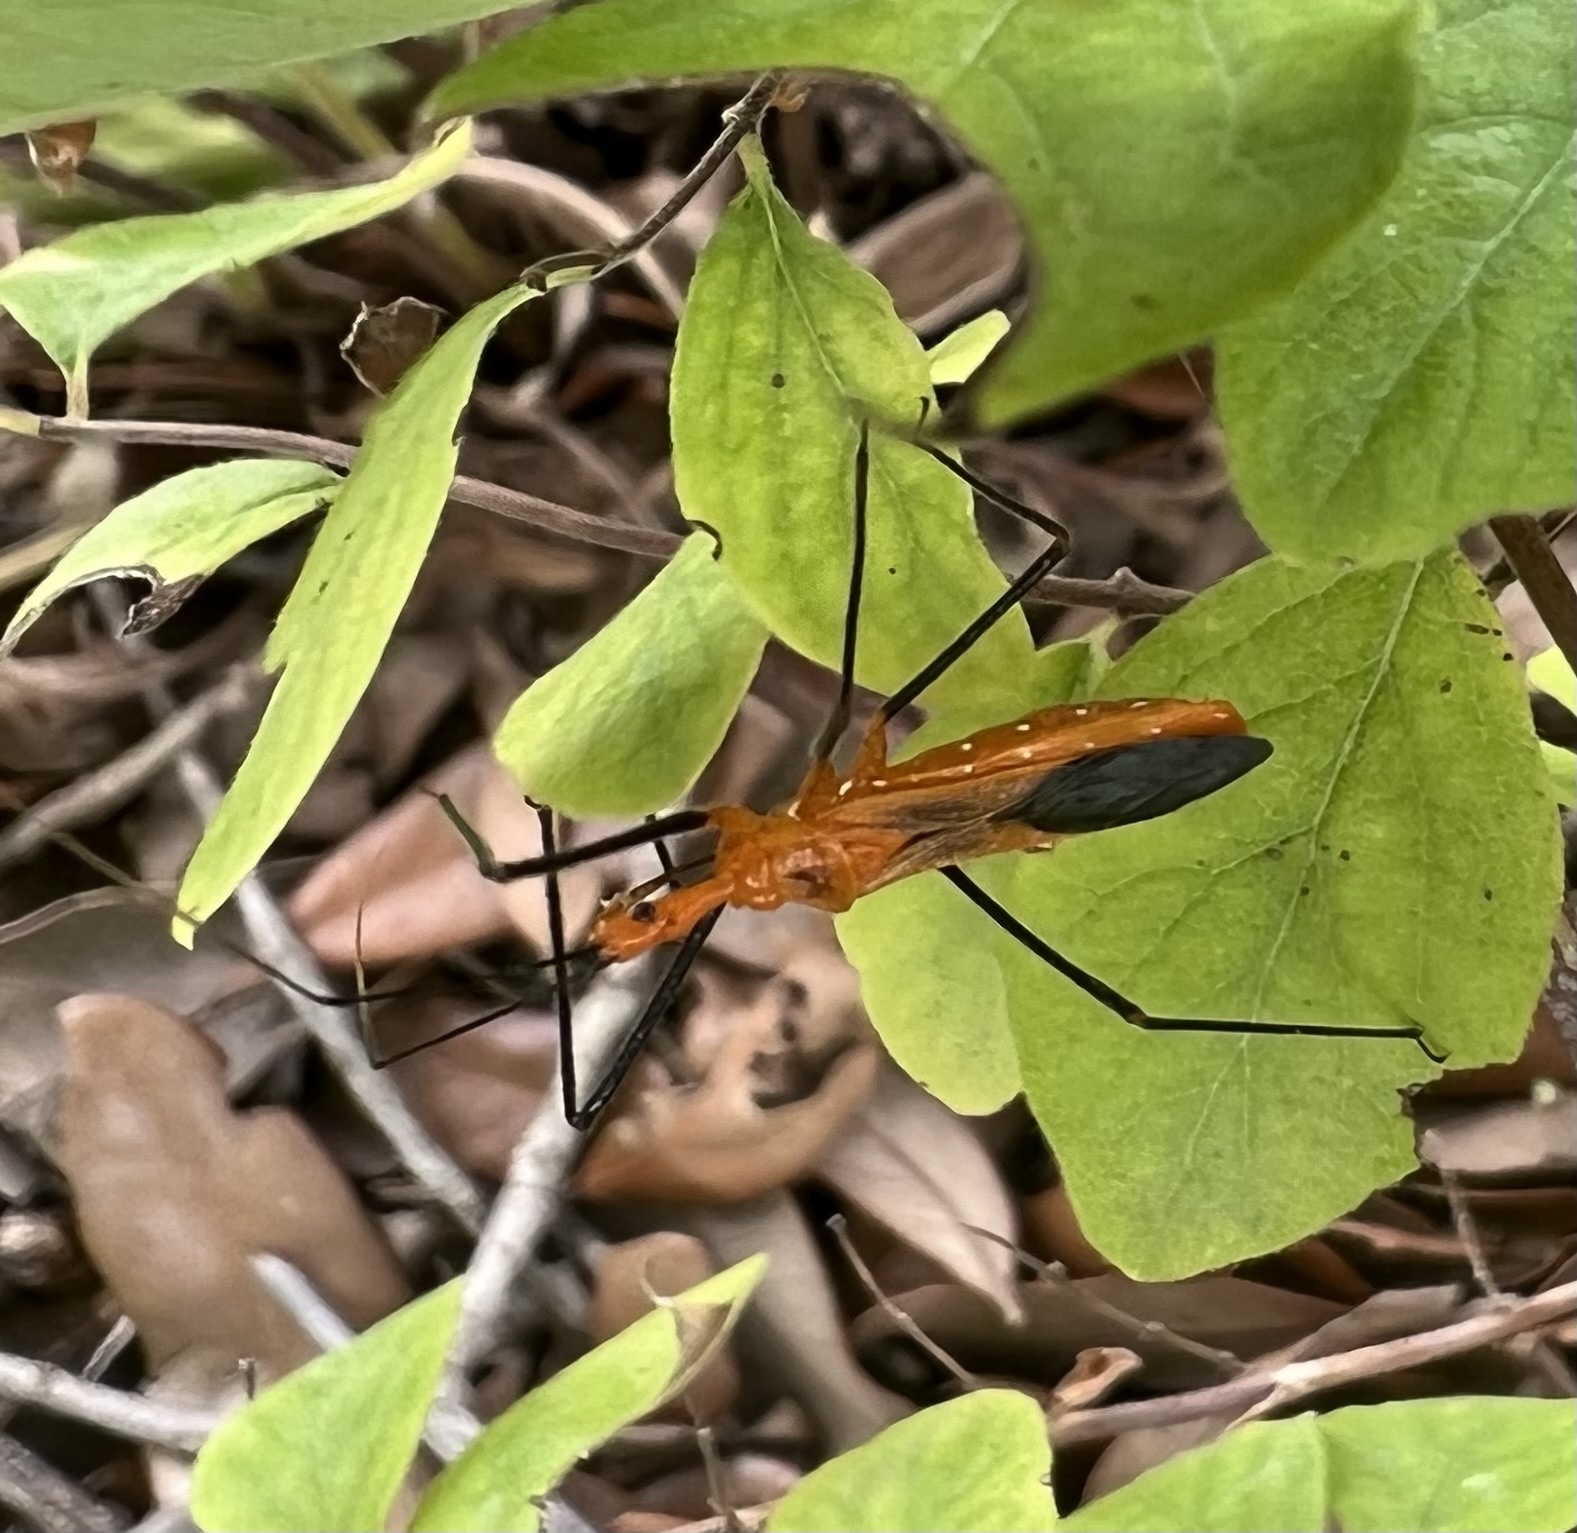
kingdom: Animalia
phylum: Arthropoda
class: Insecta
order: Hemiptera
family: Reduviidae
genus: Zelus
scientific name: Zelus longipes
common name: Milkweed assassin bug
